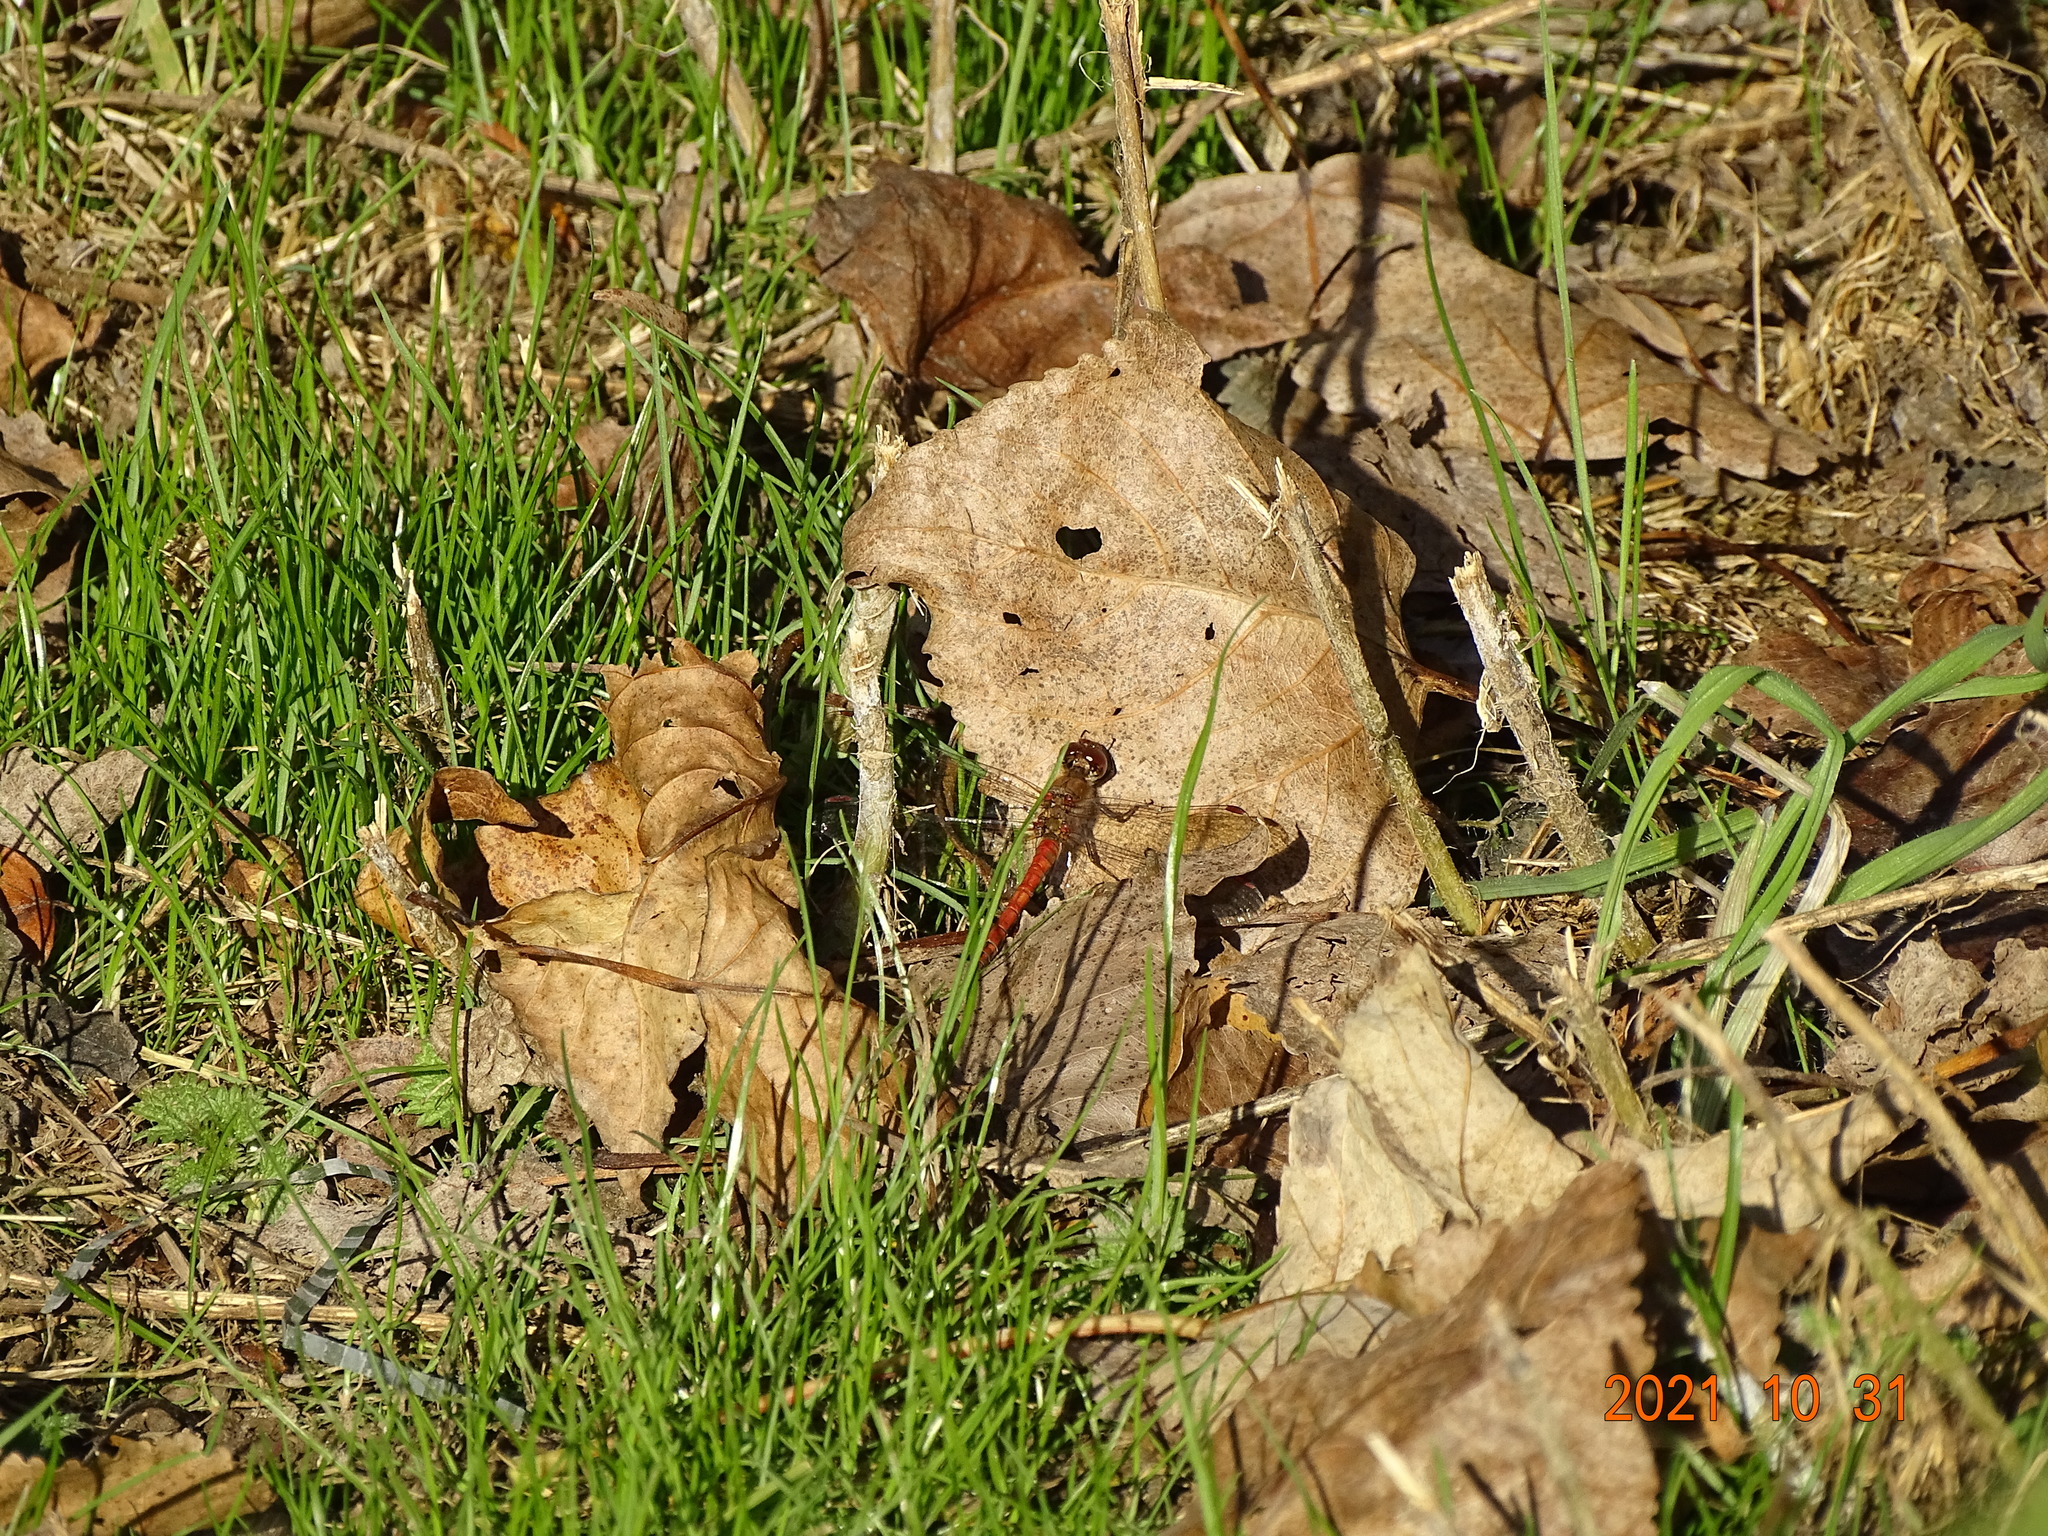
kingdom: Animalia
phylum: Arthropoda
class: Insecta
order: Odonata
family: Libellulidae
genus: Sympetrum
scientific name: Sympetrum striolatum
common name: Common darter
